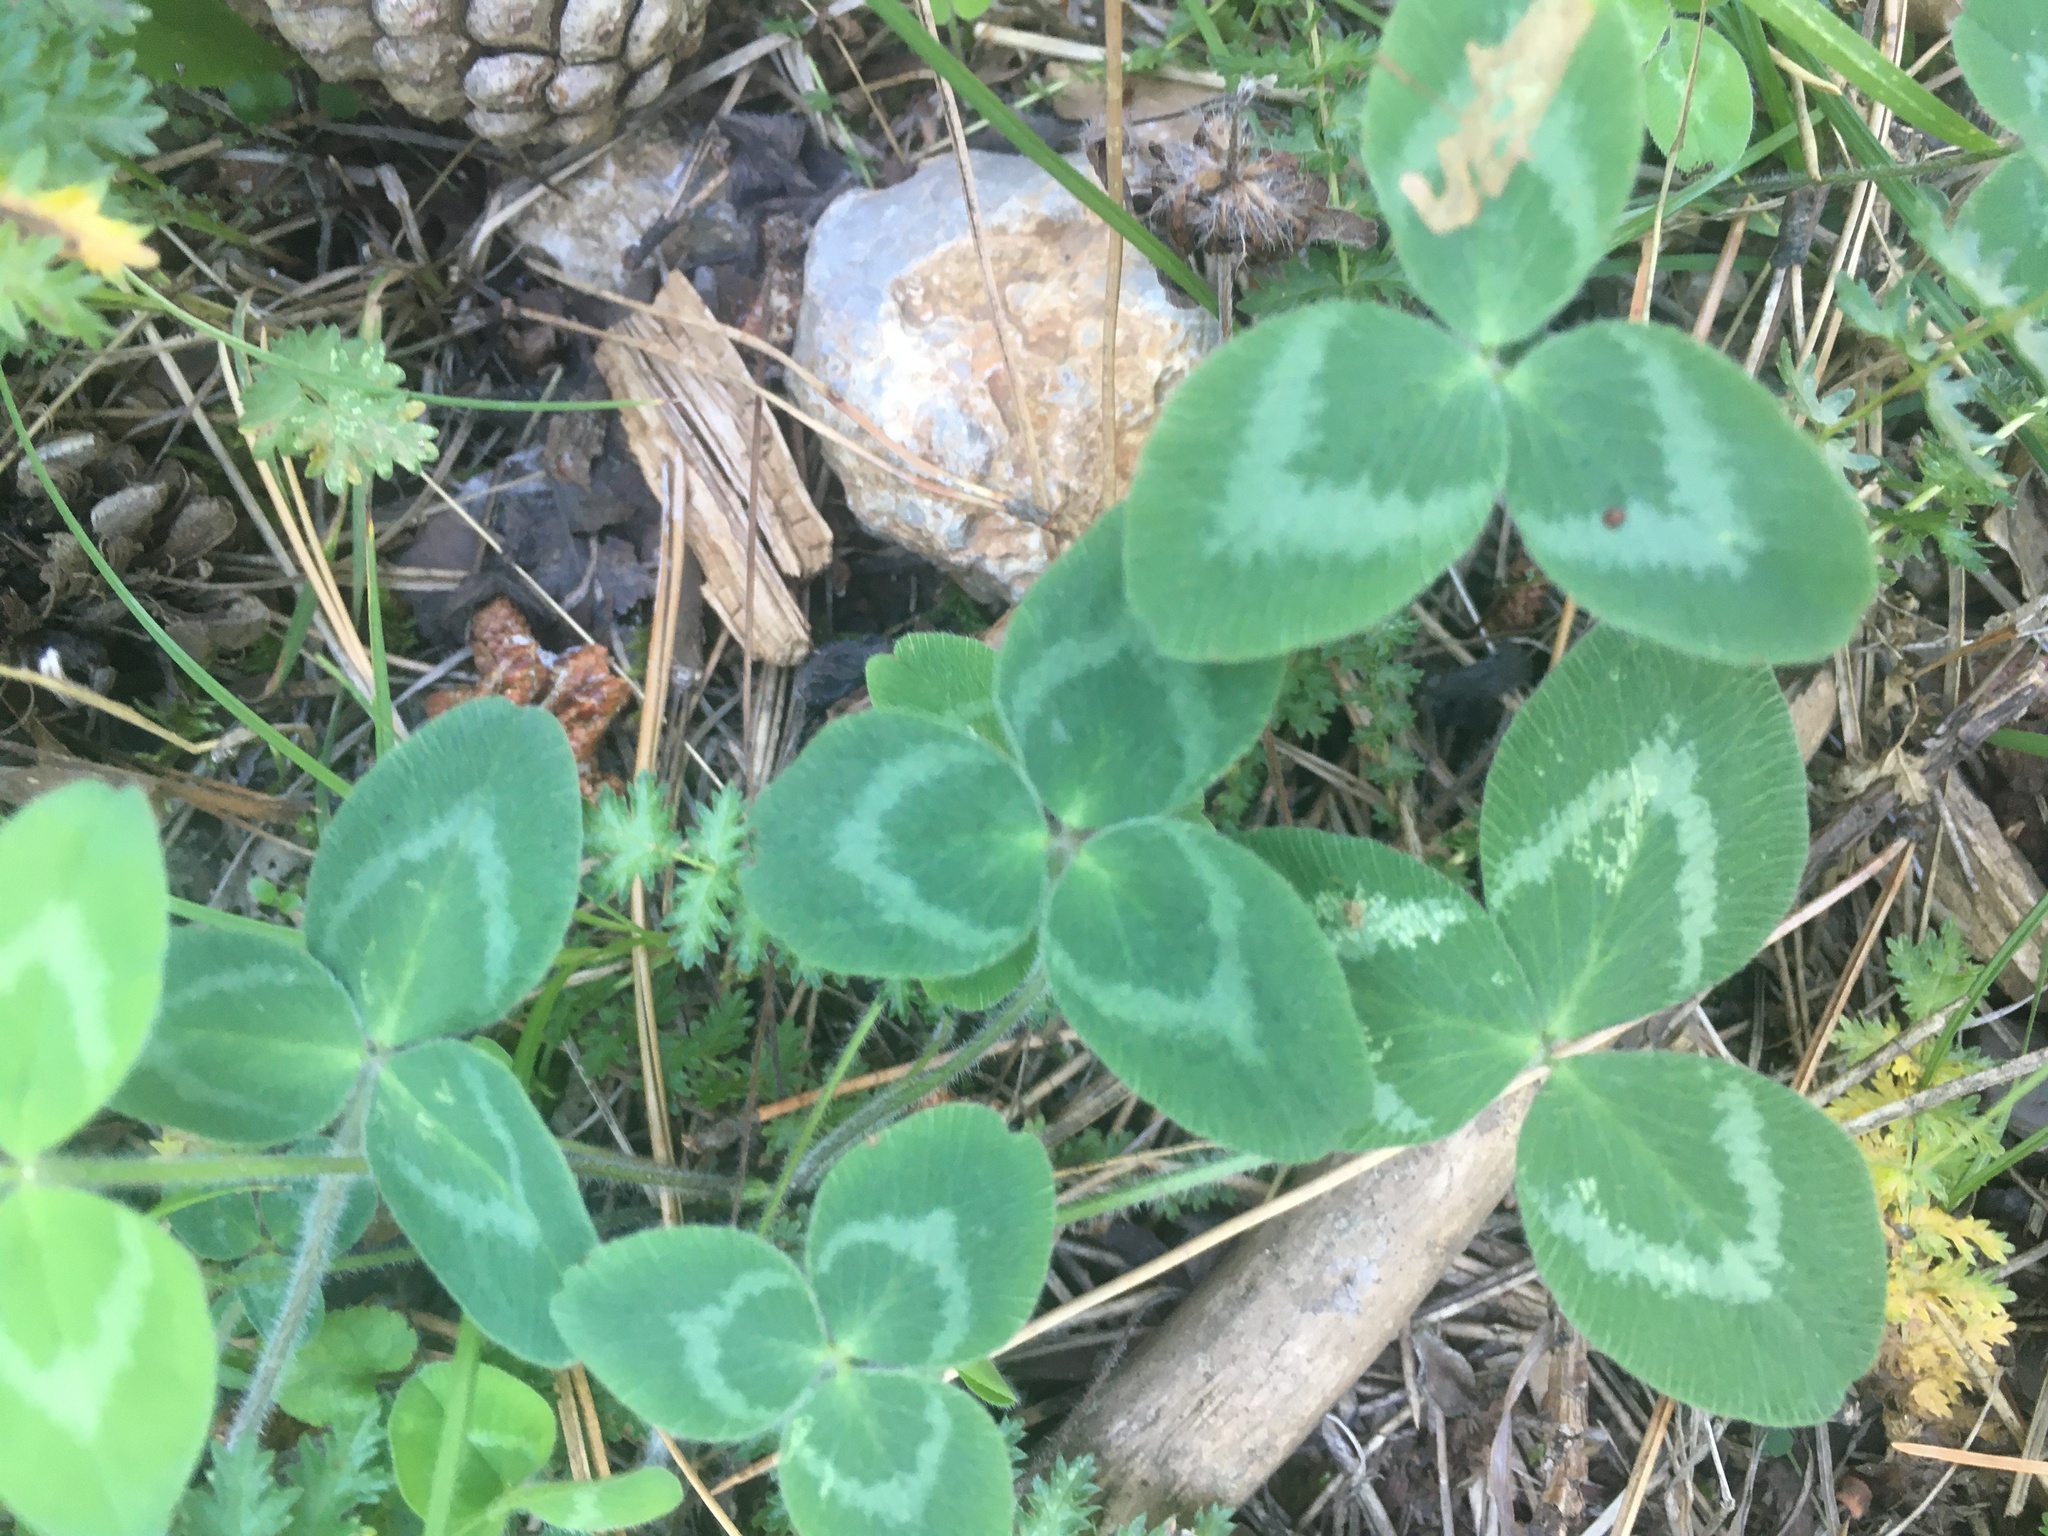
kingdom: Plantae
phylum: Tracheophyta
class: Magnoliopsida
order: Fabales
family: Fabaceae
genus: Trifolium
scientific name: Trifolium pratense
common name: Red clover
